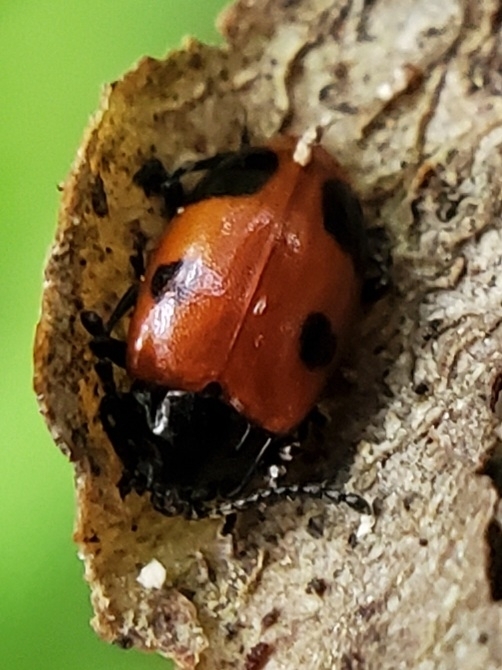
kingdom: Animalia
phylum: Arthropoda
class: Insecta
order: Coleoptera
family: Endomychidae
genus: Endomychus
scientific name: Endomychus biguttatus
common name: Handsome fungus beetle
